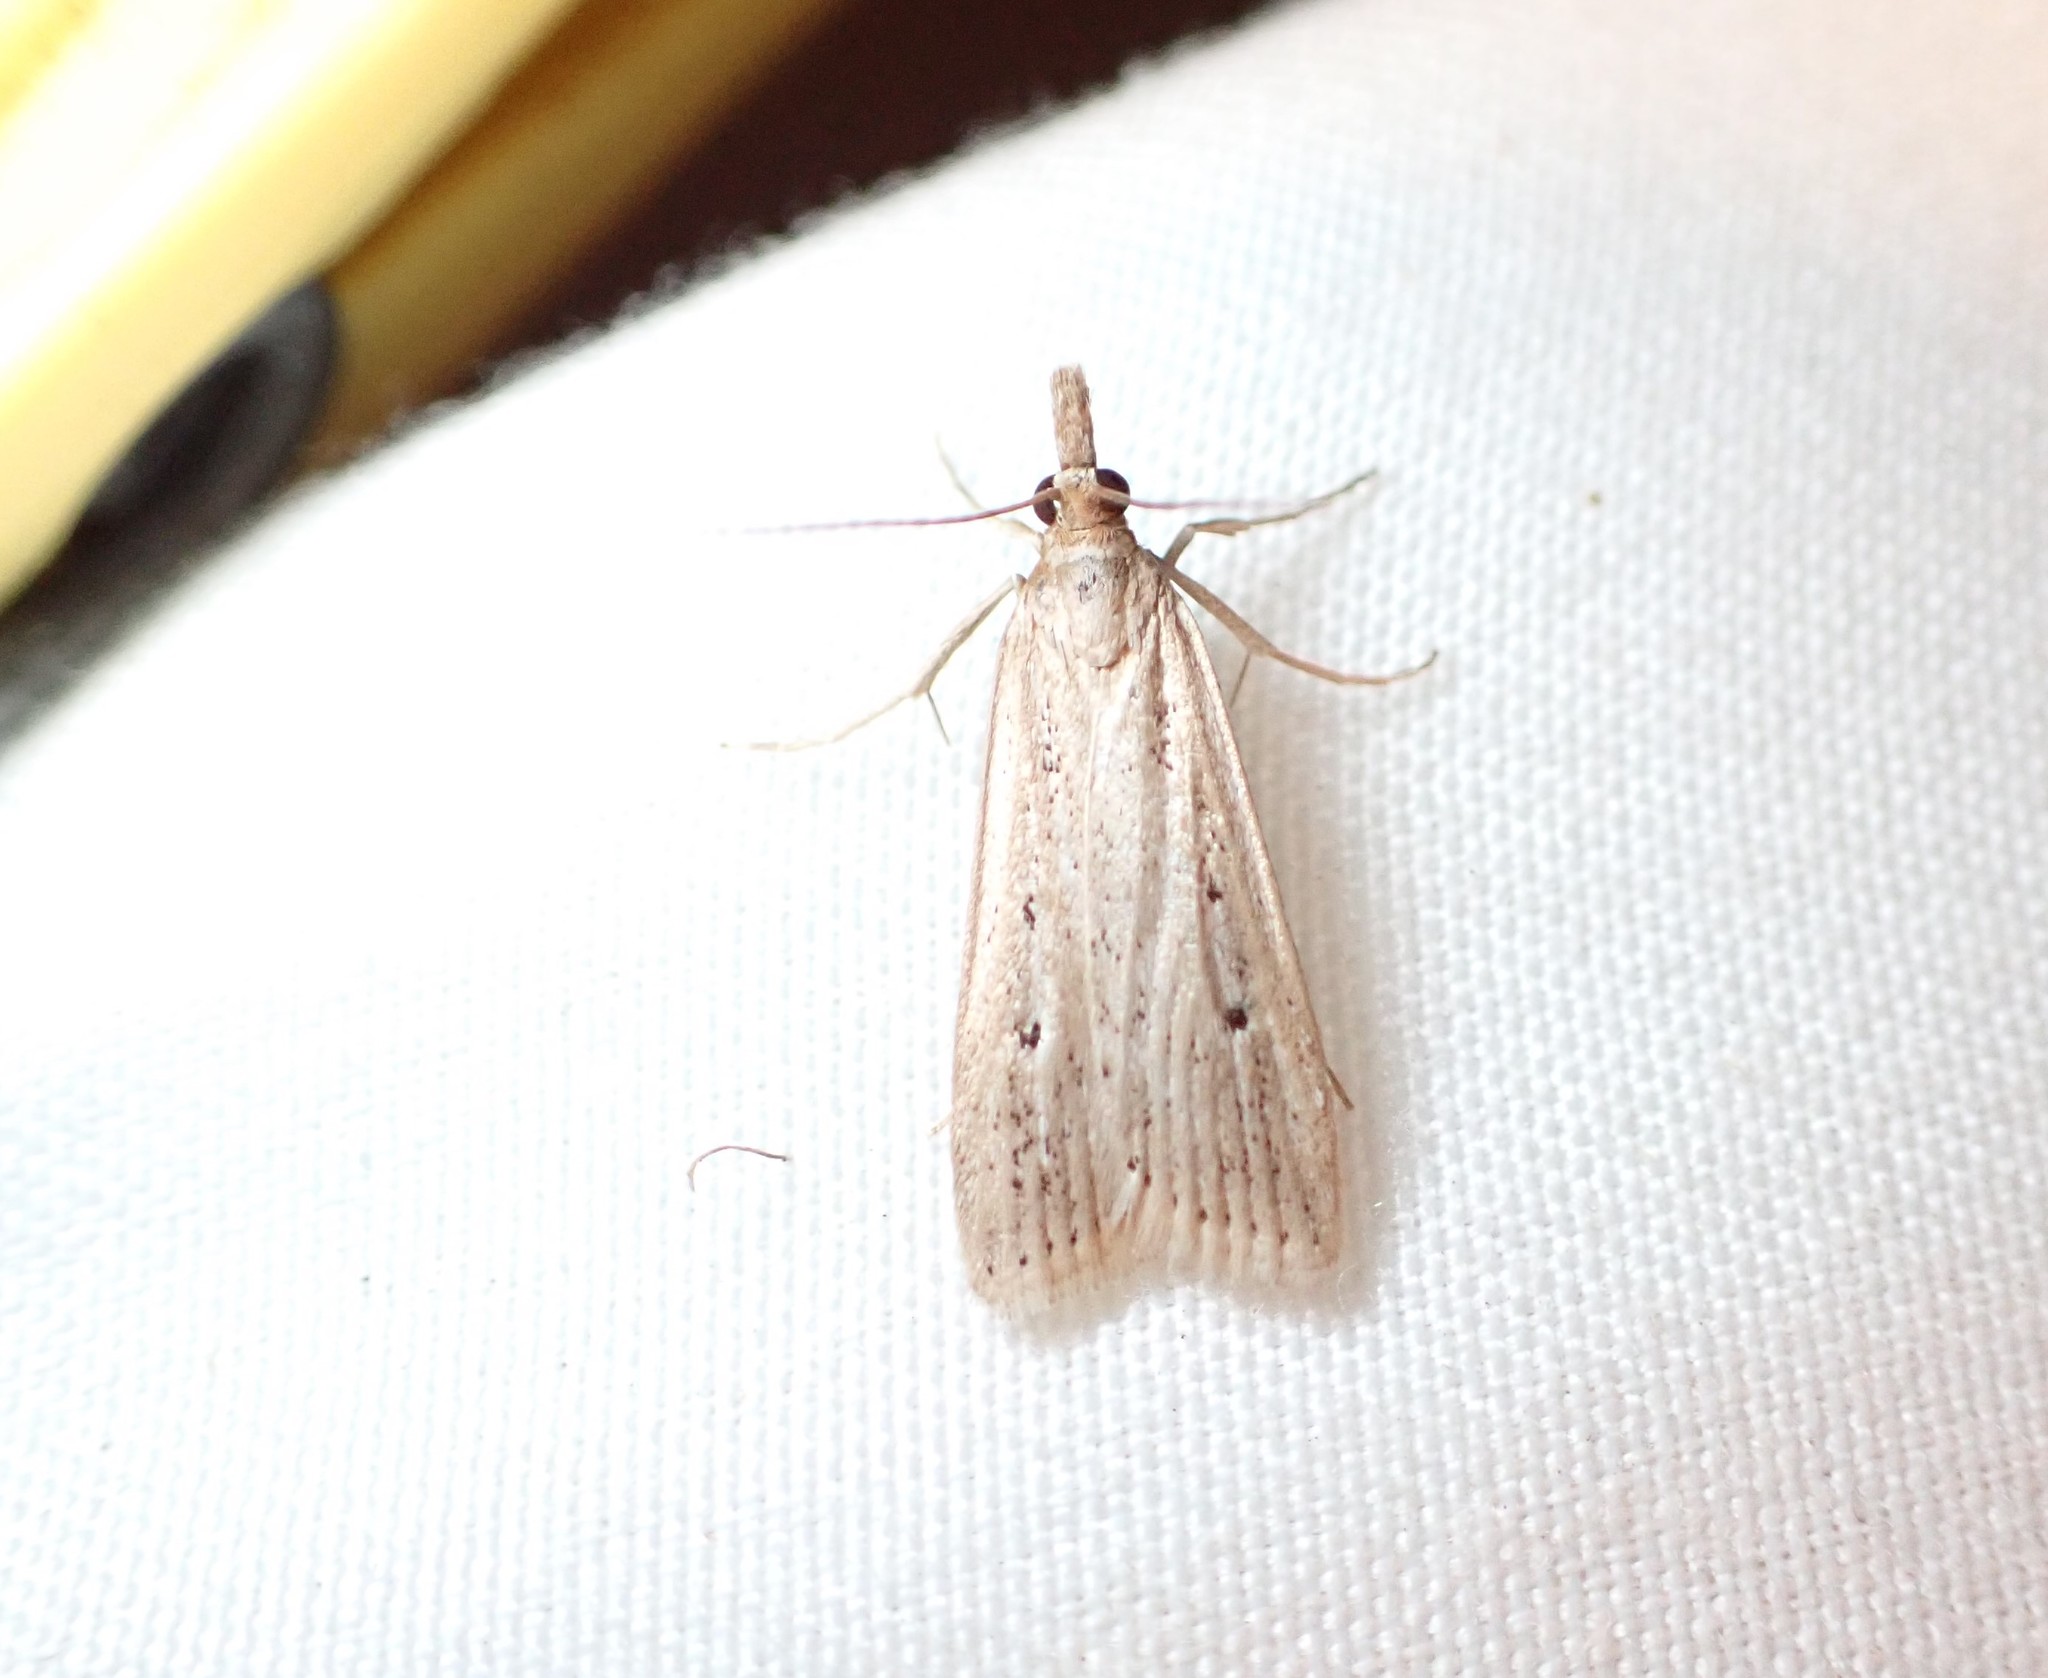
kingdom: Animalia
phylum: Arthropoda
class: Insecta
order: Lepidoptera
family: Crambidae
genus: Eudonia
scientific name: Eudonia sabulosella
